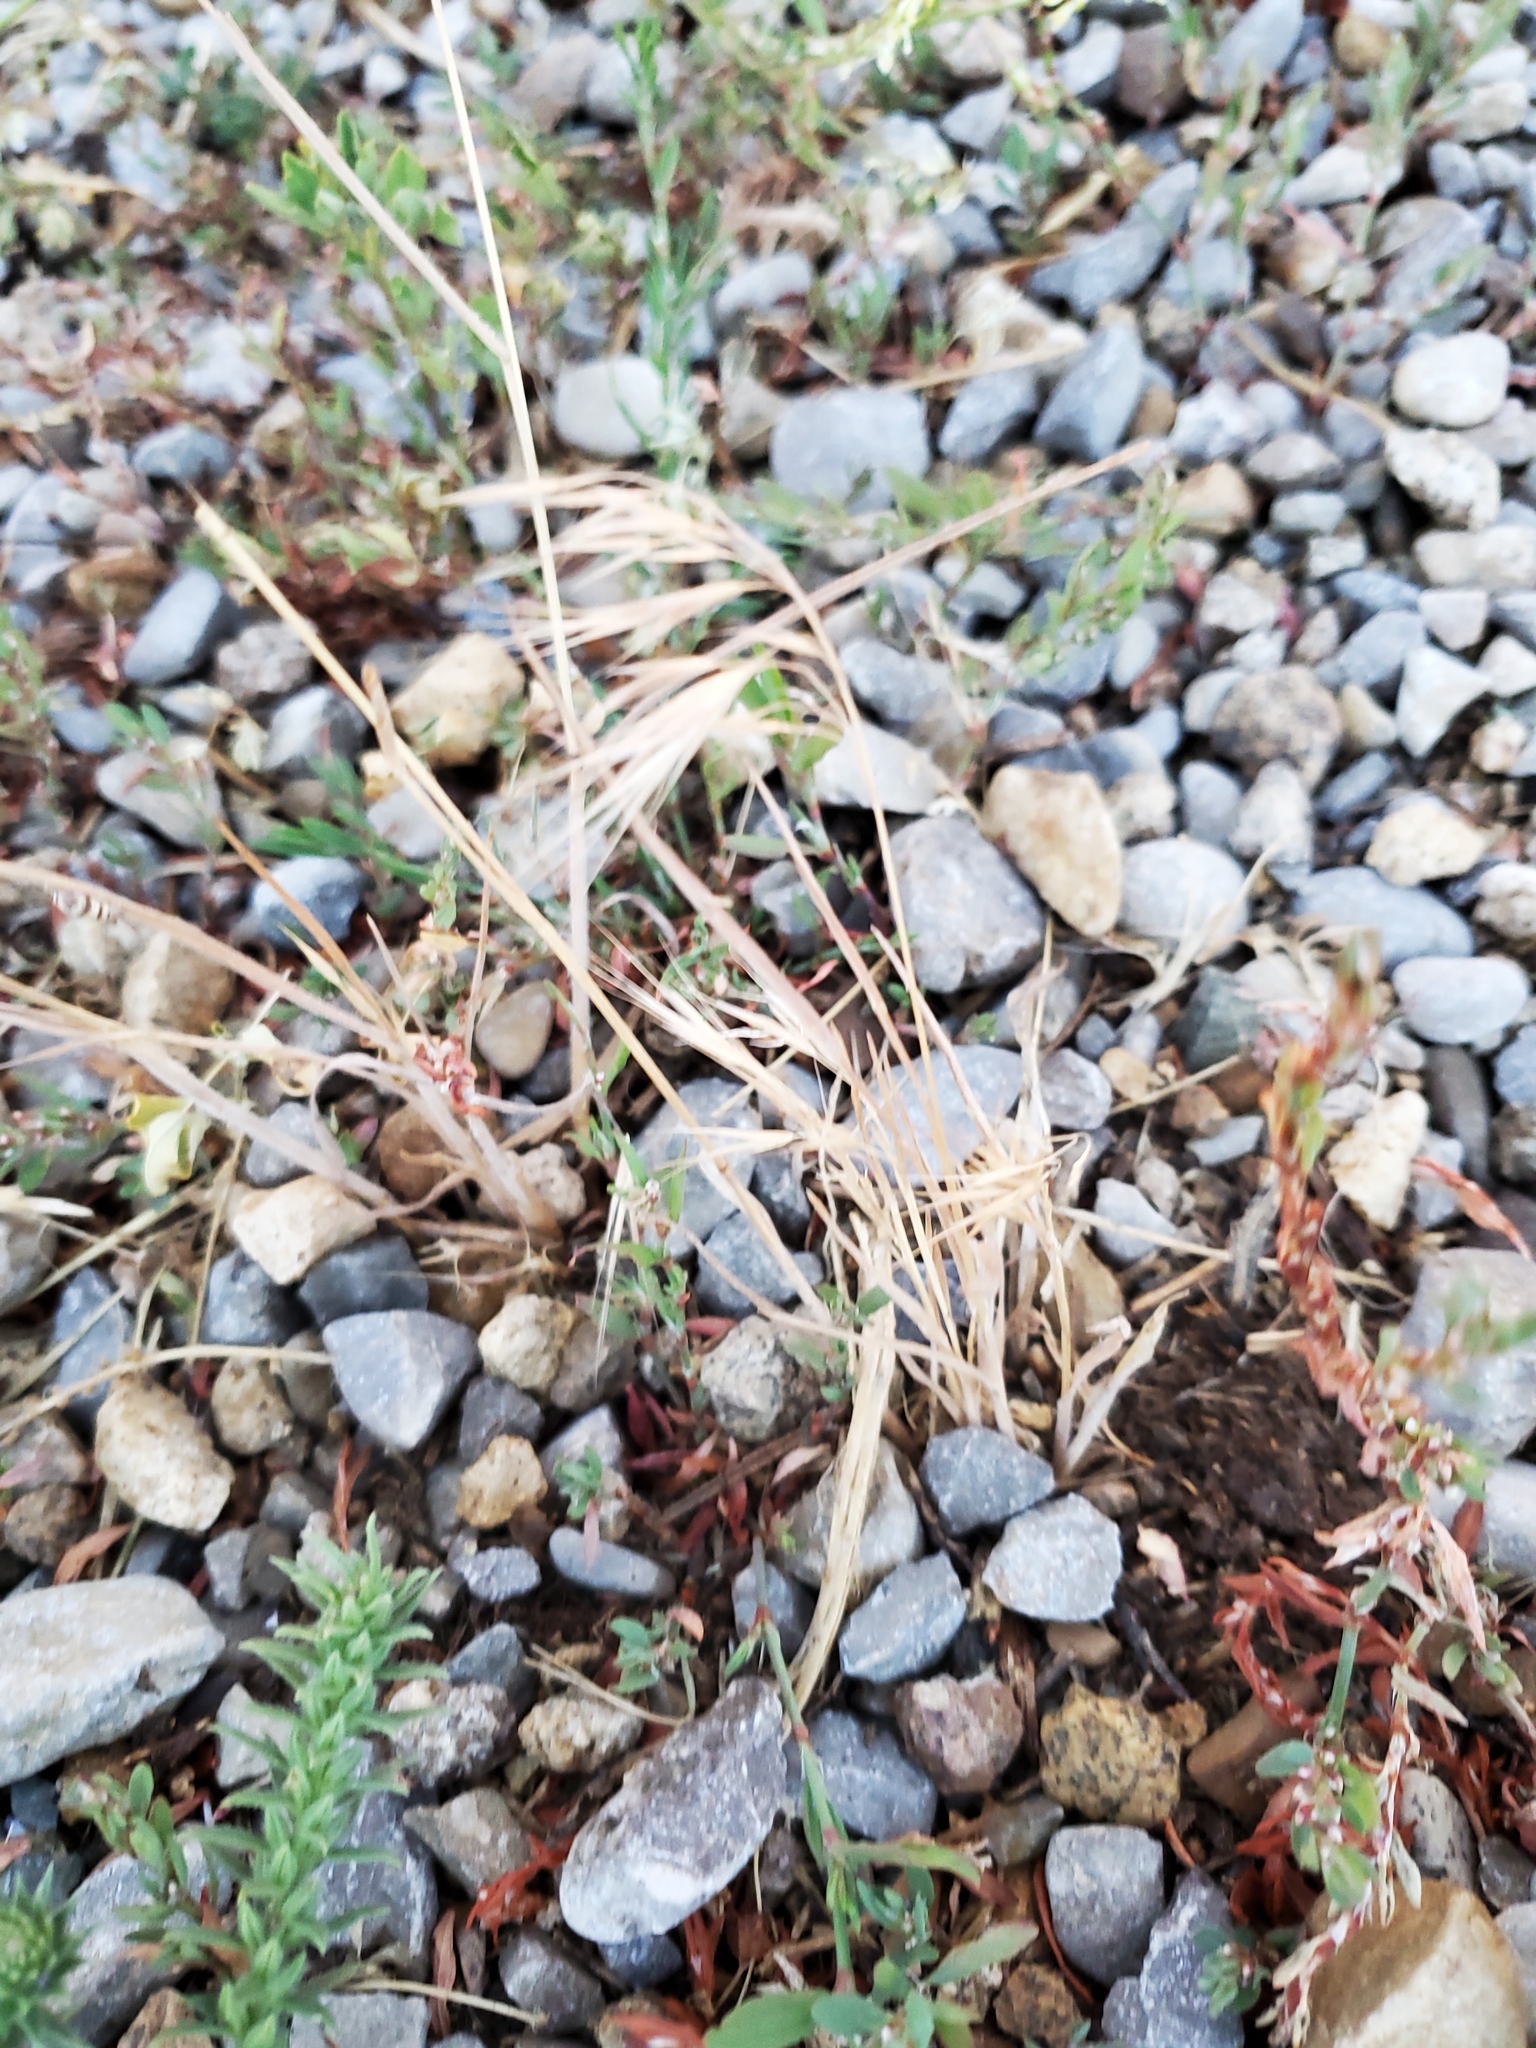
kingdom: Plantae
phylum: Tracheophyta
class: Liliopsida
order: Poales
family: Poaceae
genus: Bromus
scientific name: Bromus tectorum
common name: Cheatgrass
